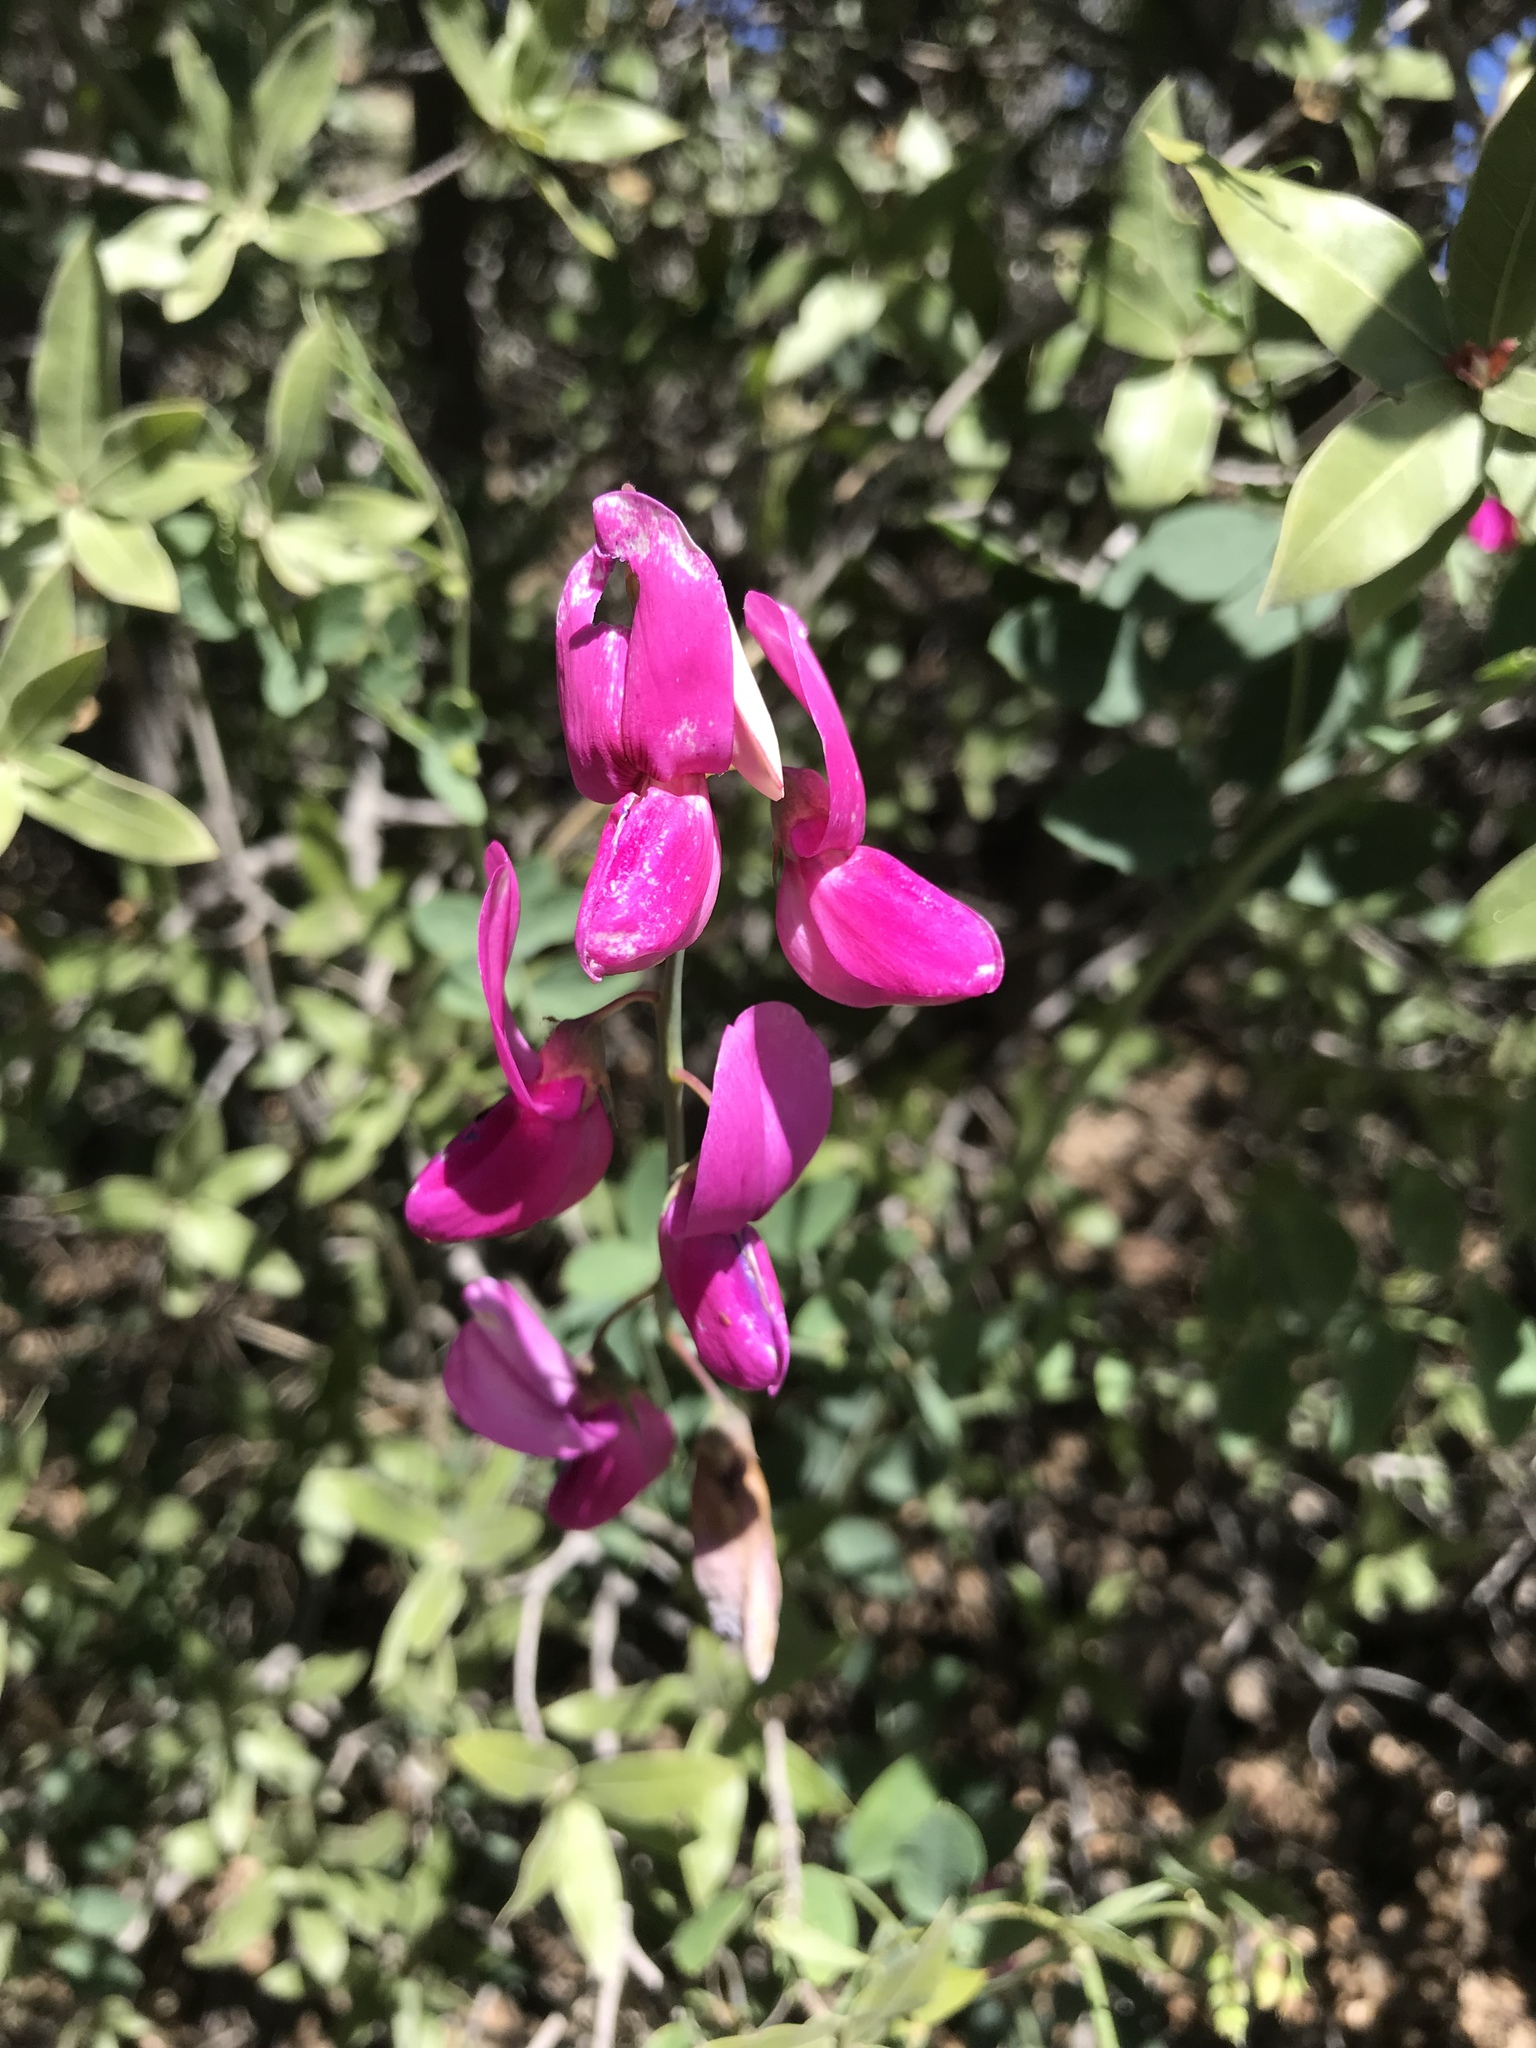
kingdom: Plantae
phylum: Tracheophyta
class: Magnoliopsida
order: Fabales
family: Fabaceae
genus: Lathyrus
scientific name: Lathyrus vestitus
